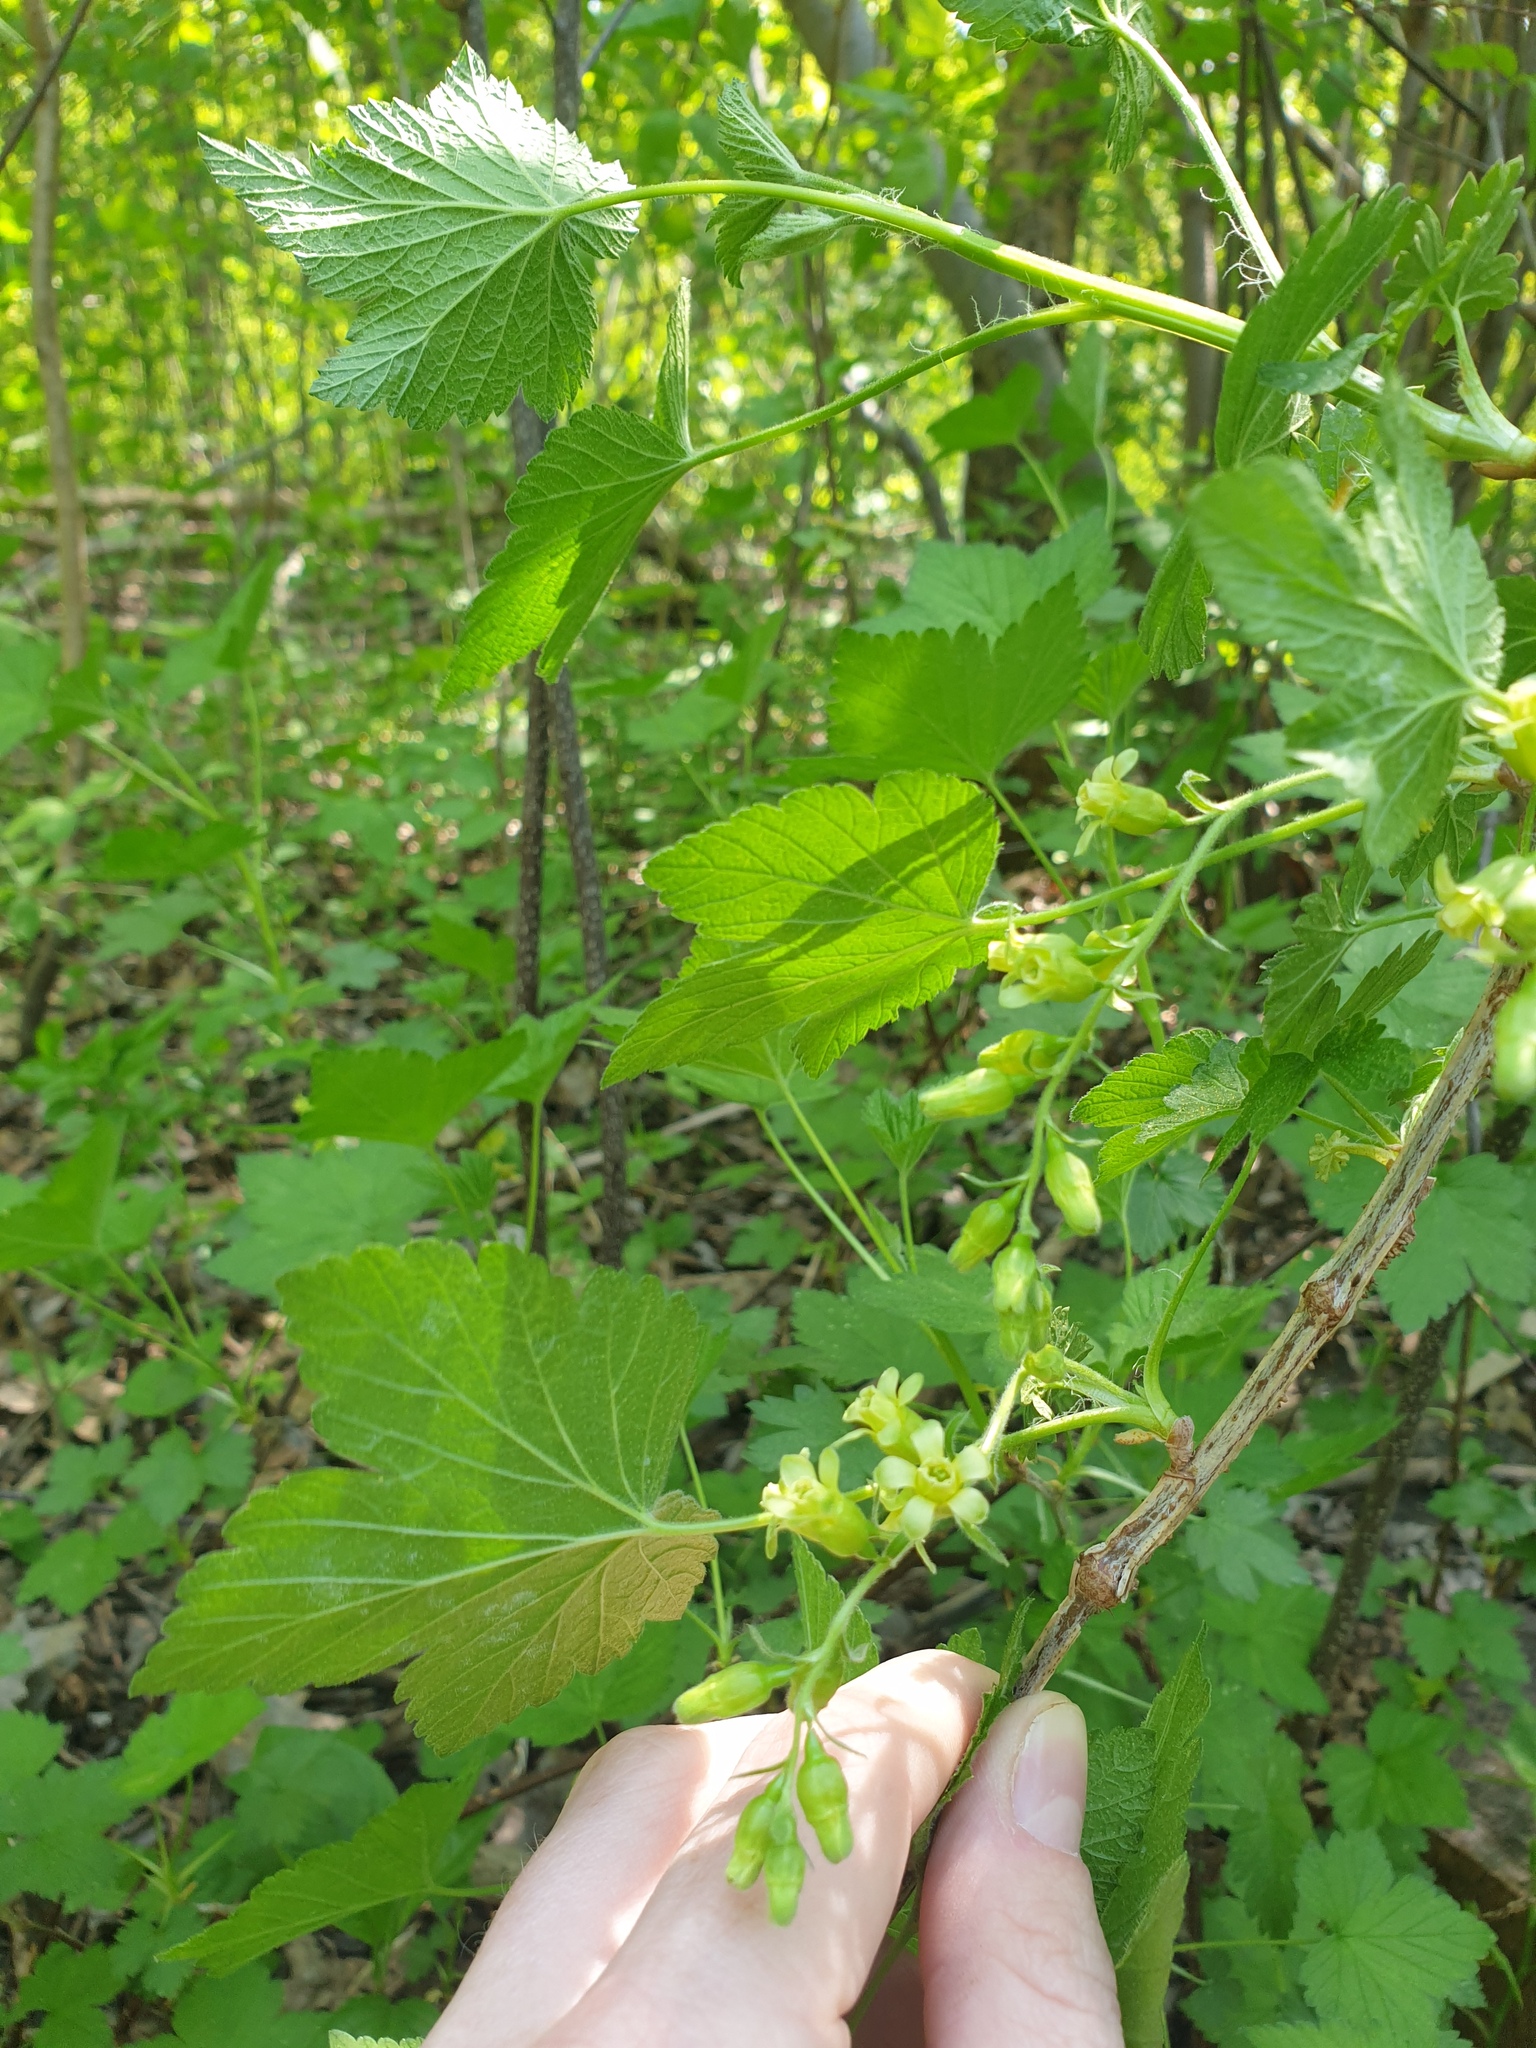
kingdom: Plantae
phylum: Tracheophyta
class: Magnoliopsida
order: Saxifragales
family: Grossulariaceae
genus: Ribes
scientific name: Ribes americanum
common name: American black currant
